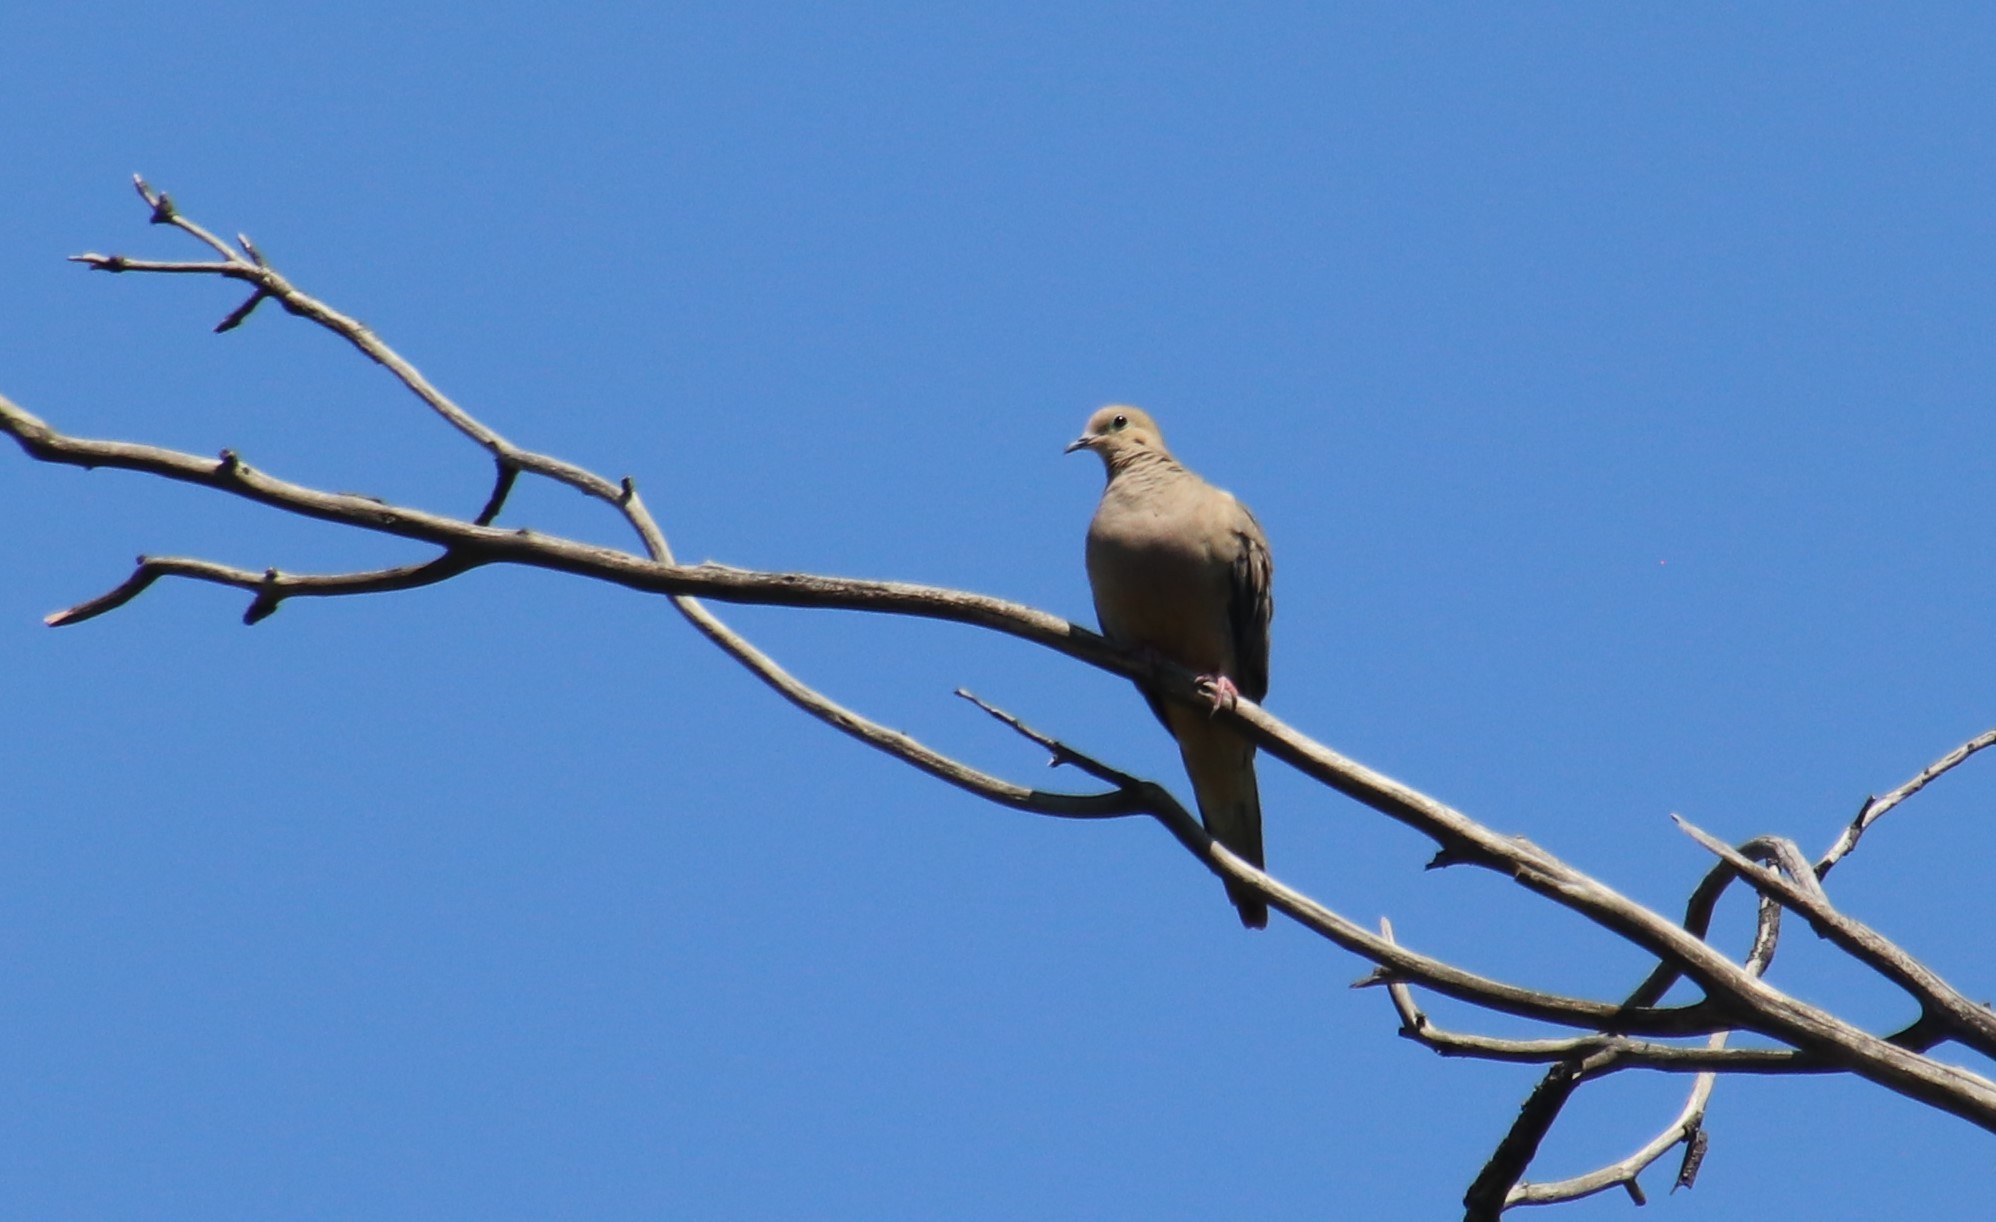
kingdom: Animalia
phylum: Chordata
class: Aves
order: Columbiformes
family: Columbidae
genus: Zenaida
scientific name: Zenaida macroura
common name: Mourning dove
